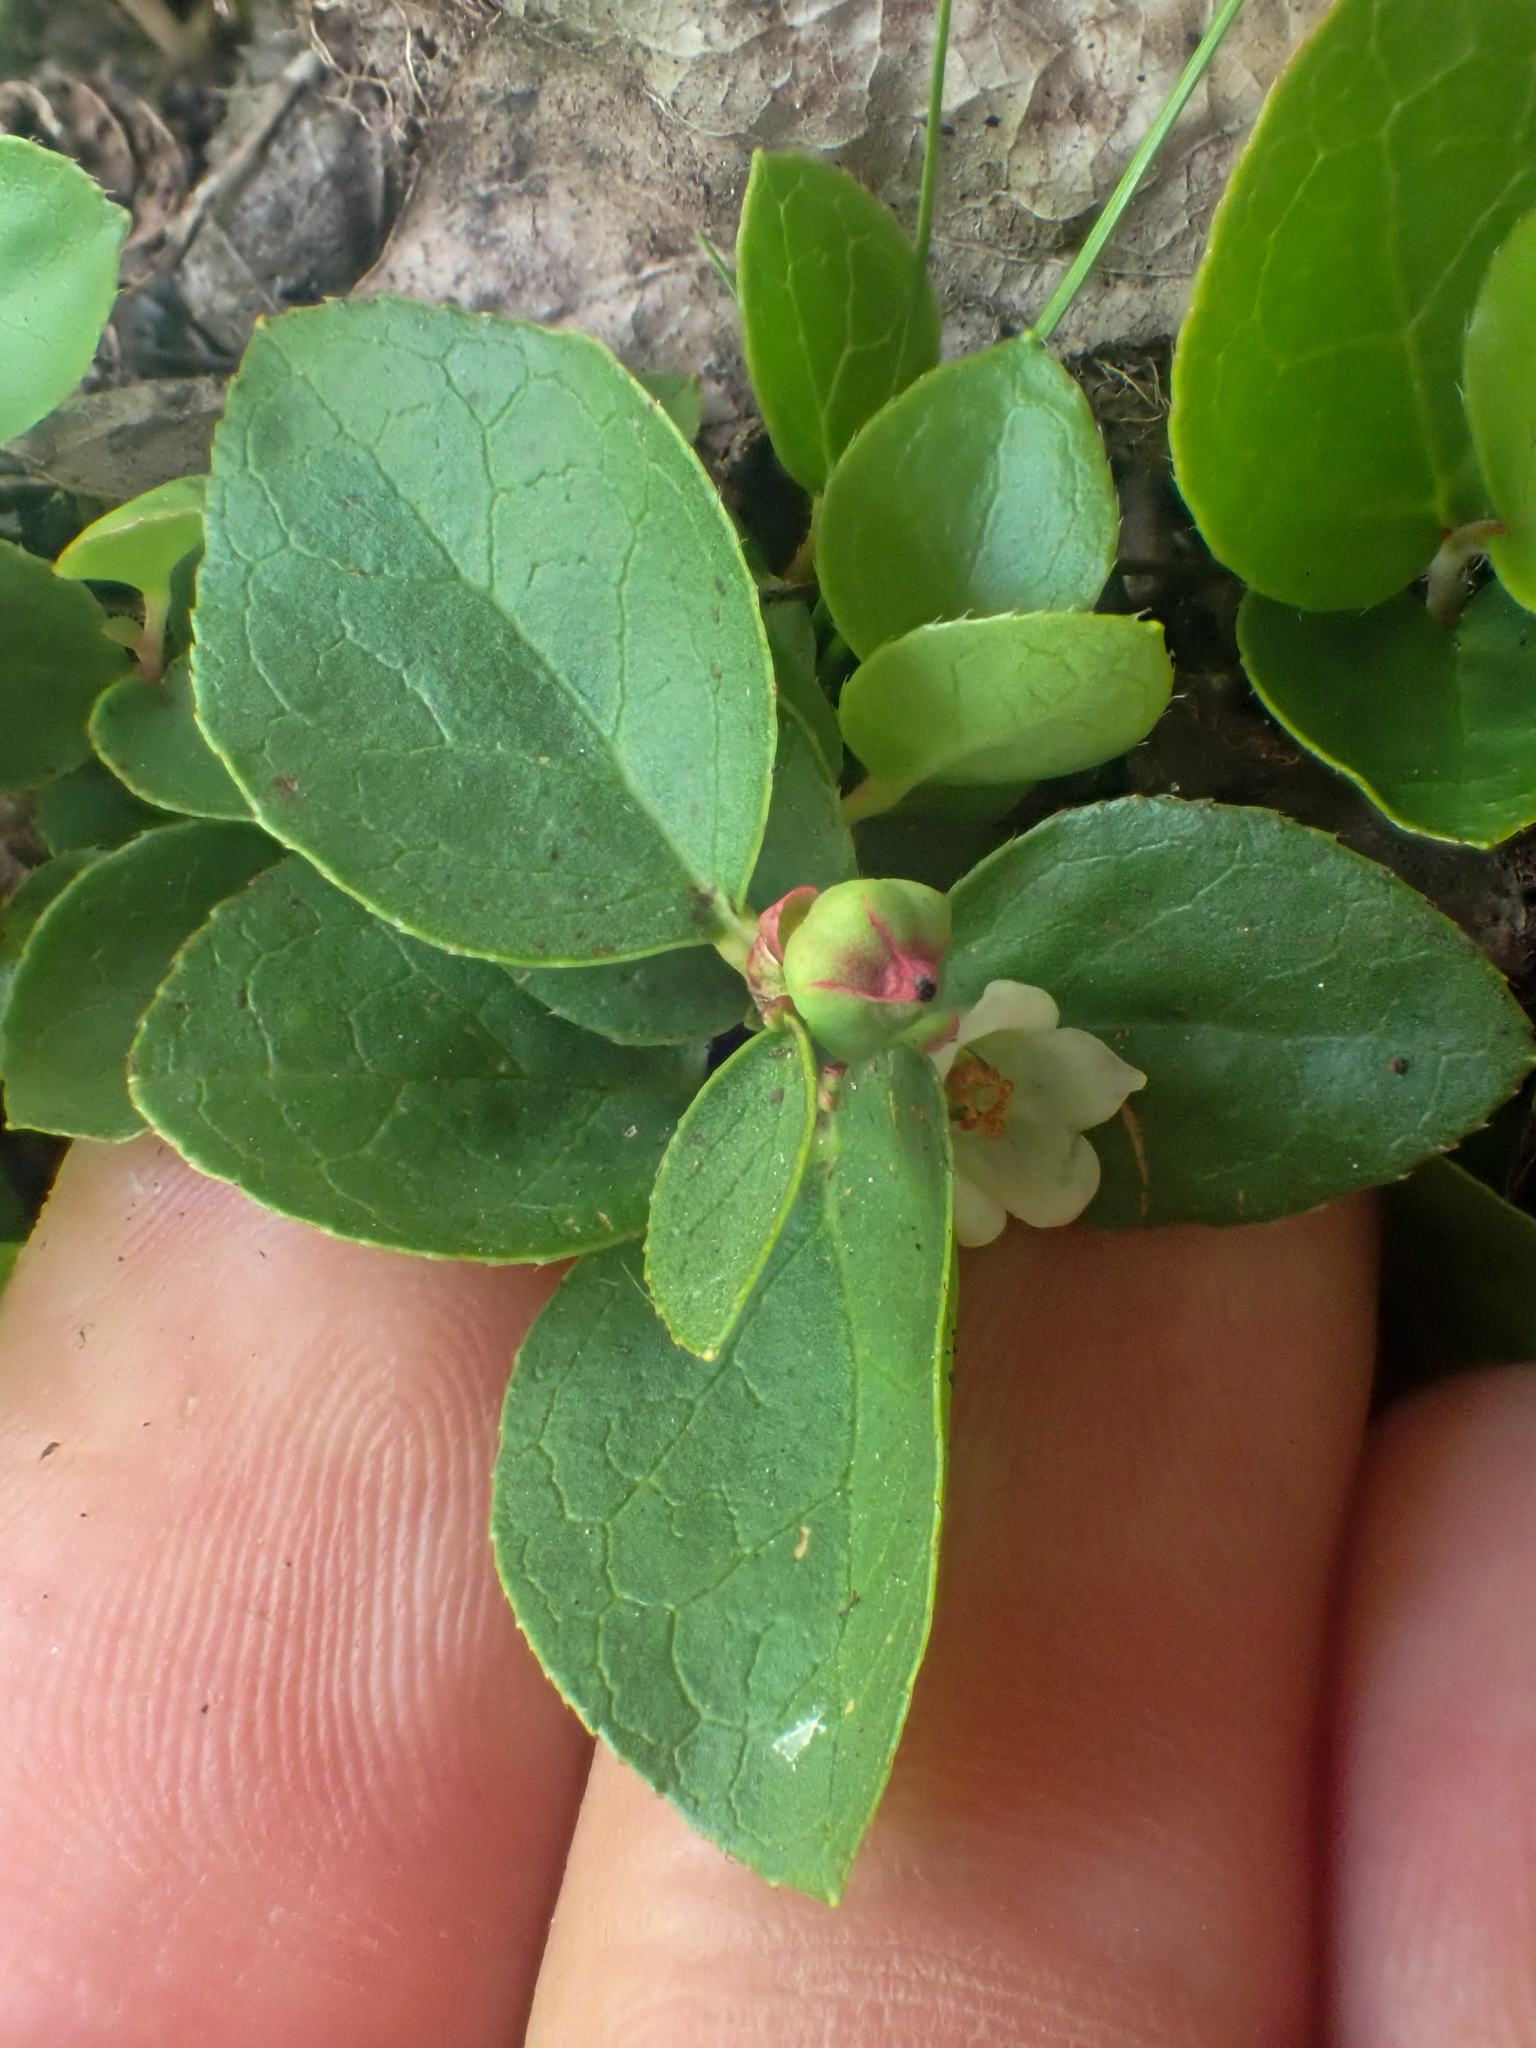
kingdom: Plantae
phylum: Tracheophyta
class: Magnoliopsida
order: Ericales
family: Ericaceae
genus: Gaultheria
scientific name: Gaultheria humifusa
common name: Alpine wintergreen
